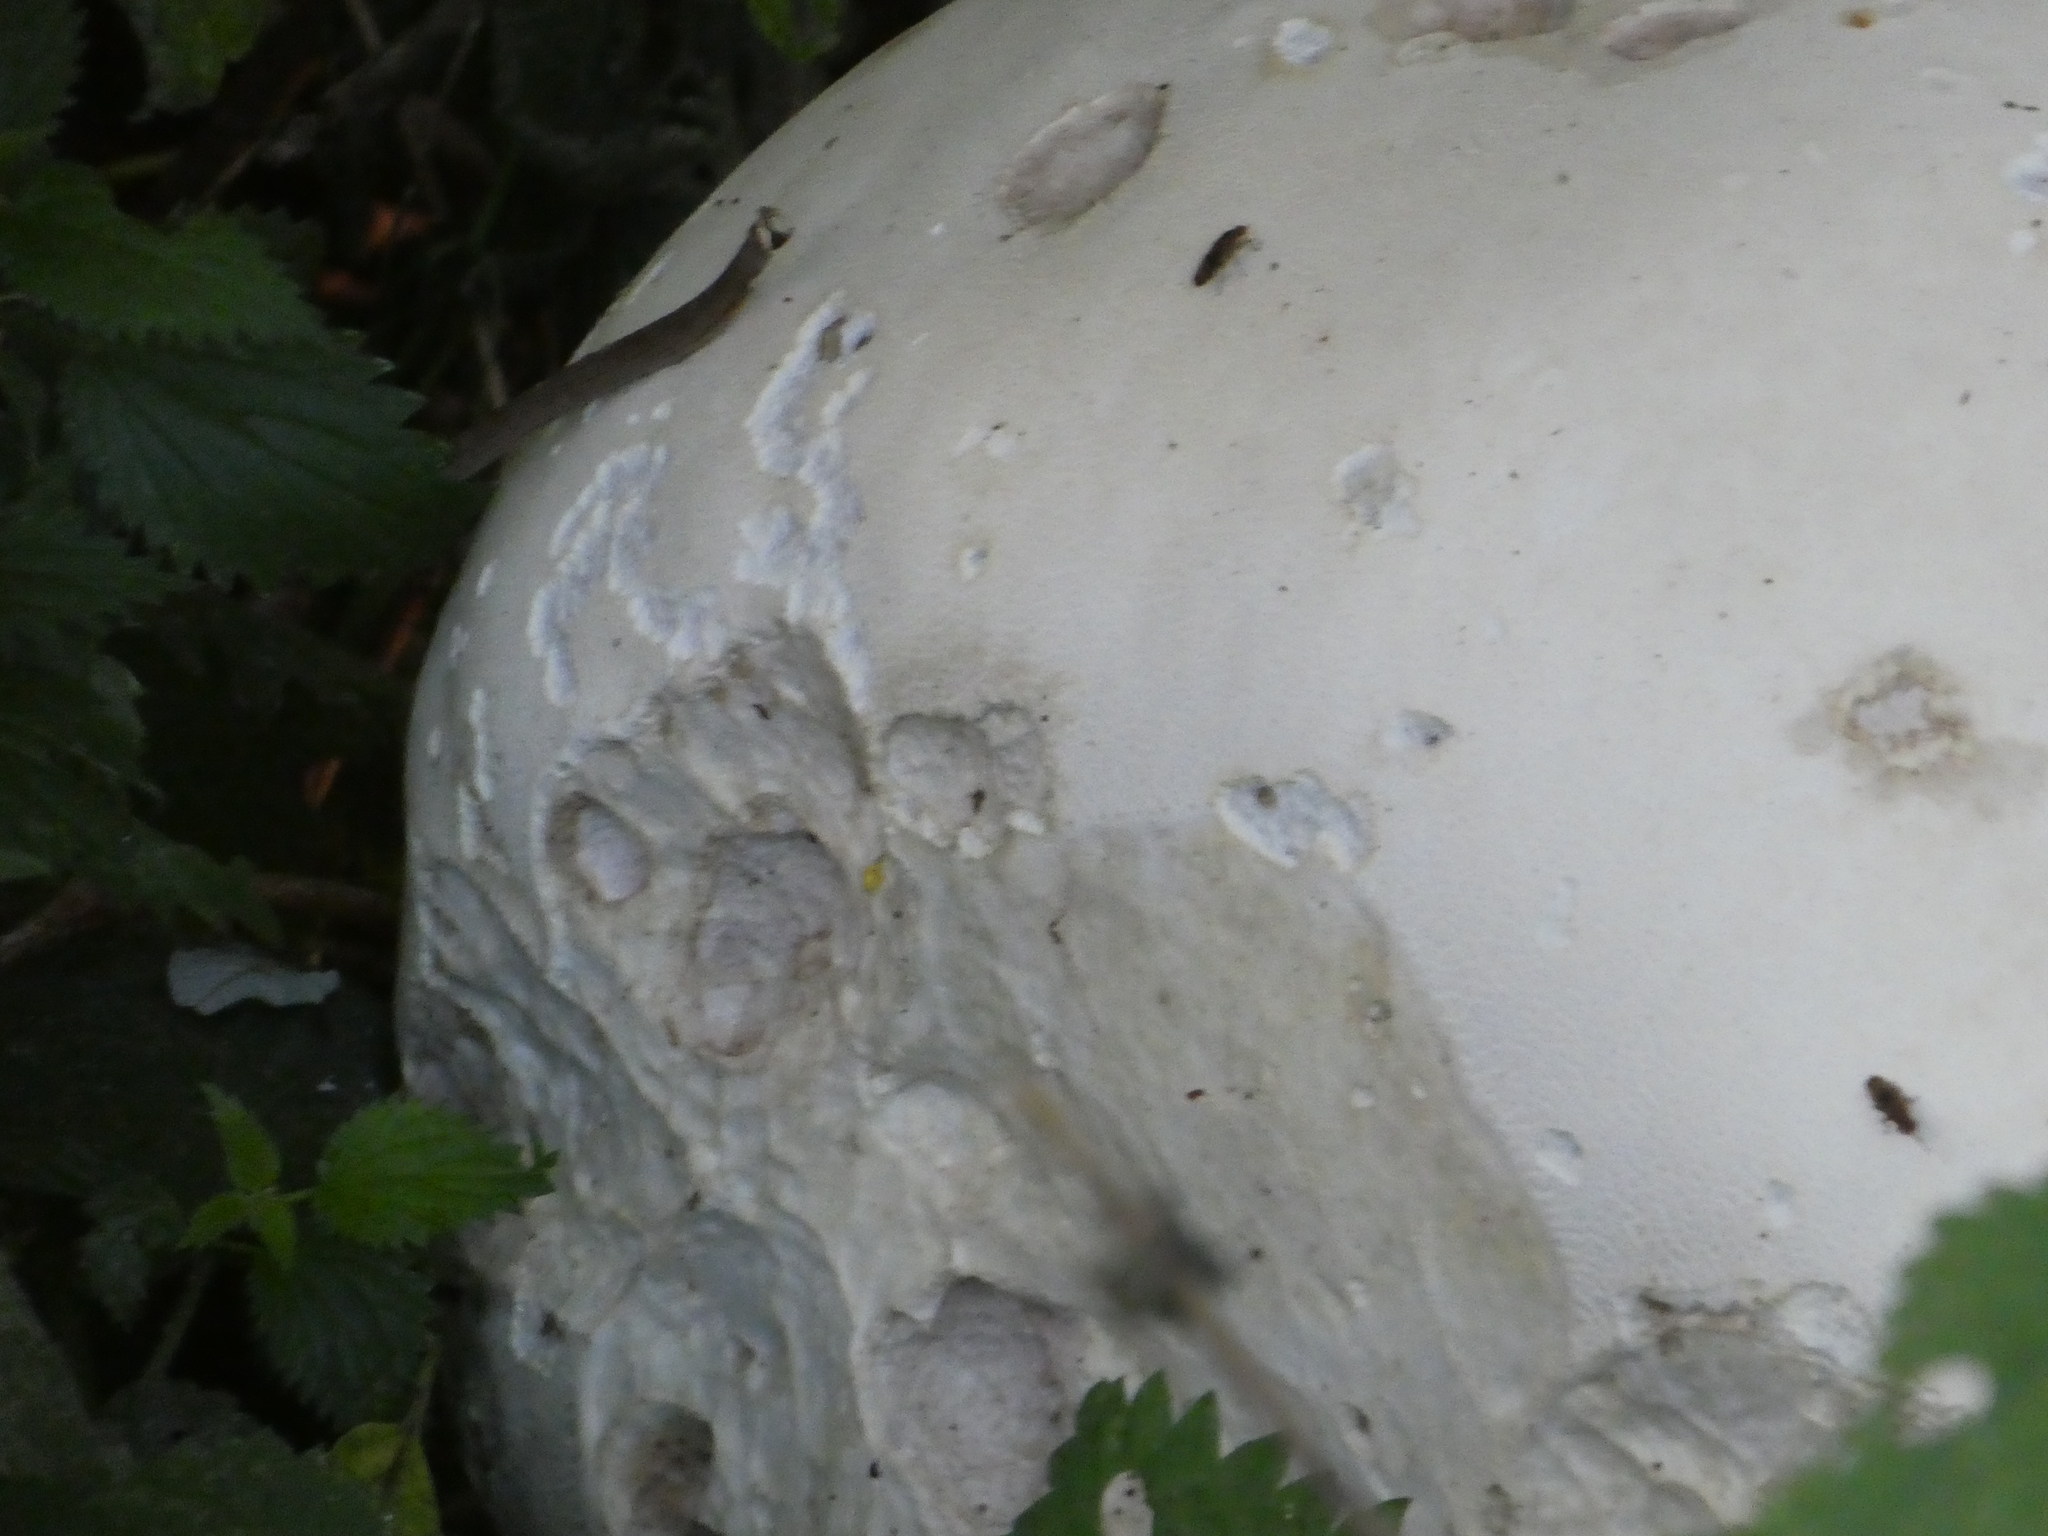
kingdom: Fungi
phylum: Basidiomycota
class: Agaricomycetes
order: Agaricales
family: Lycoperdaceae
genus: Calvatia
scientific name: Calvatia gigantea
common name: Giant puffball
